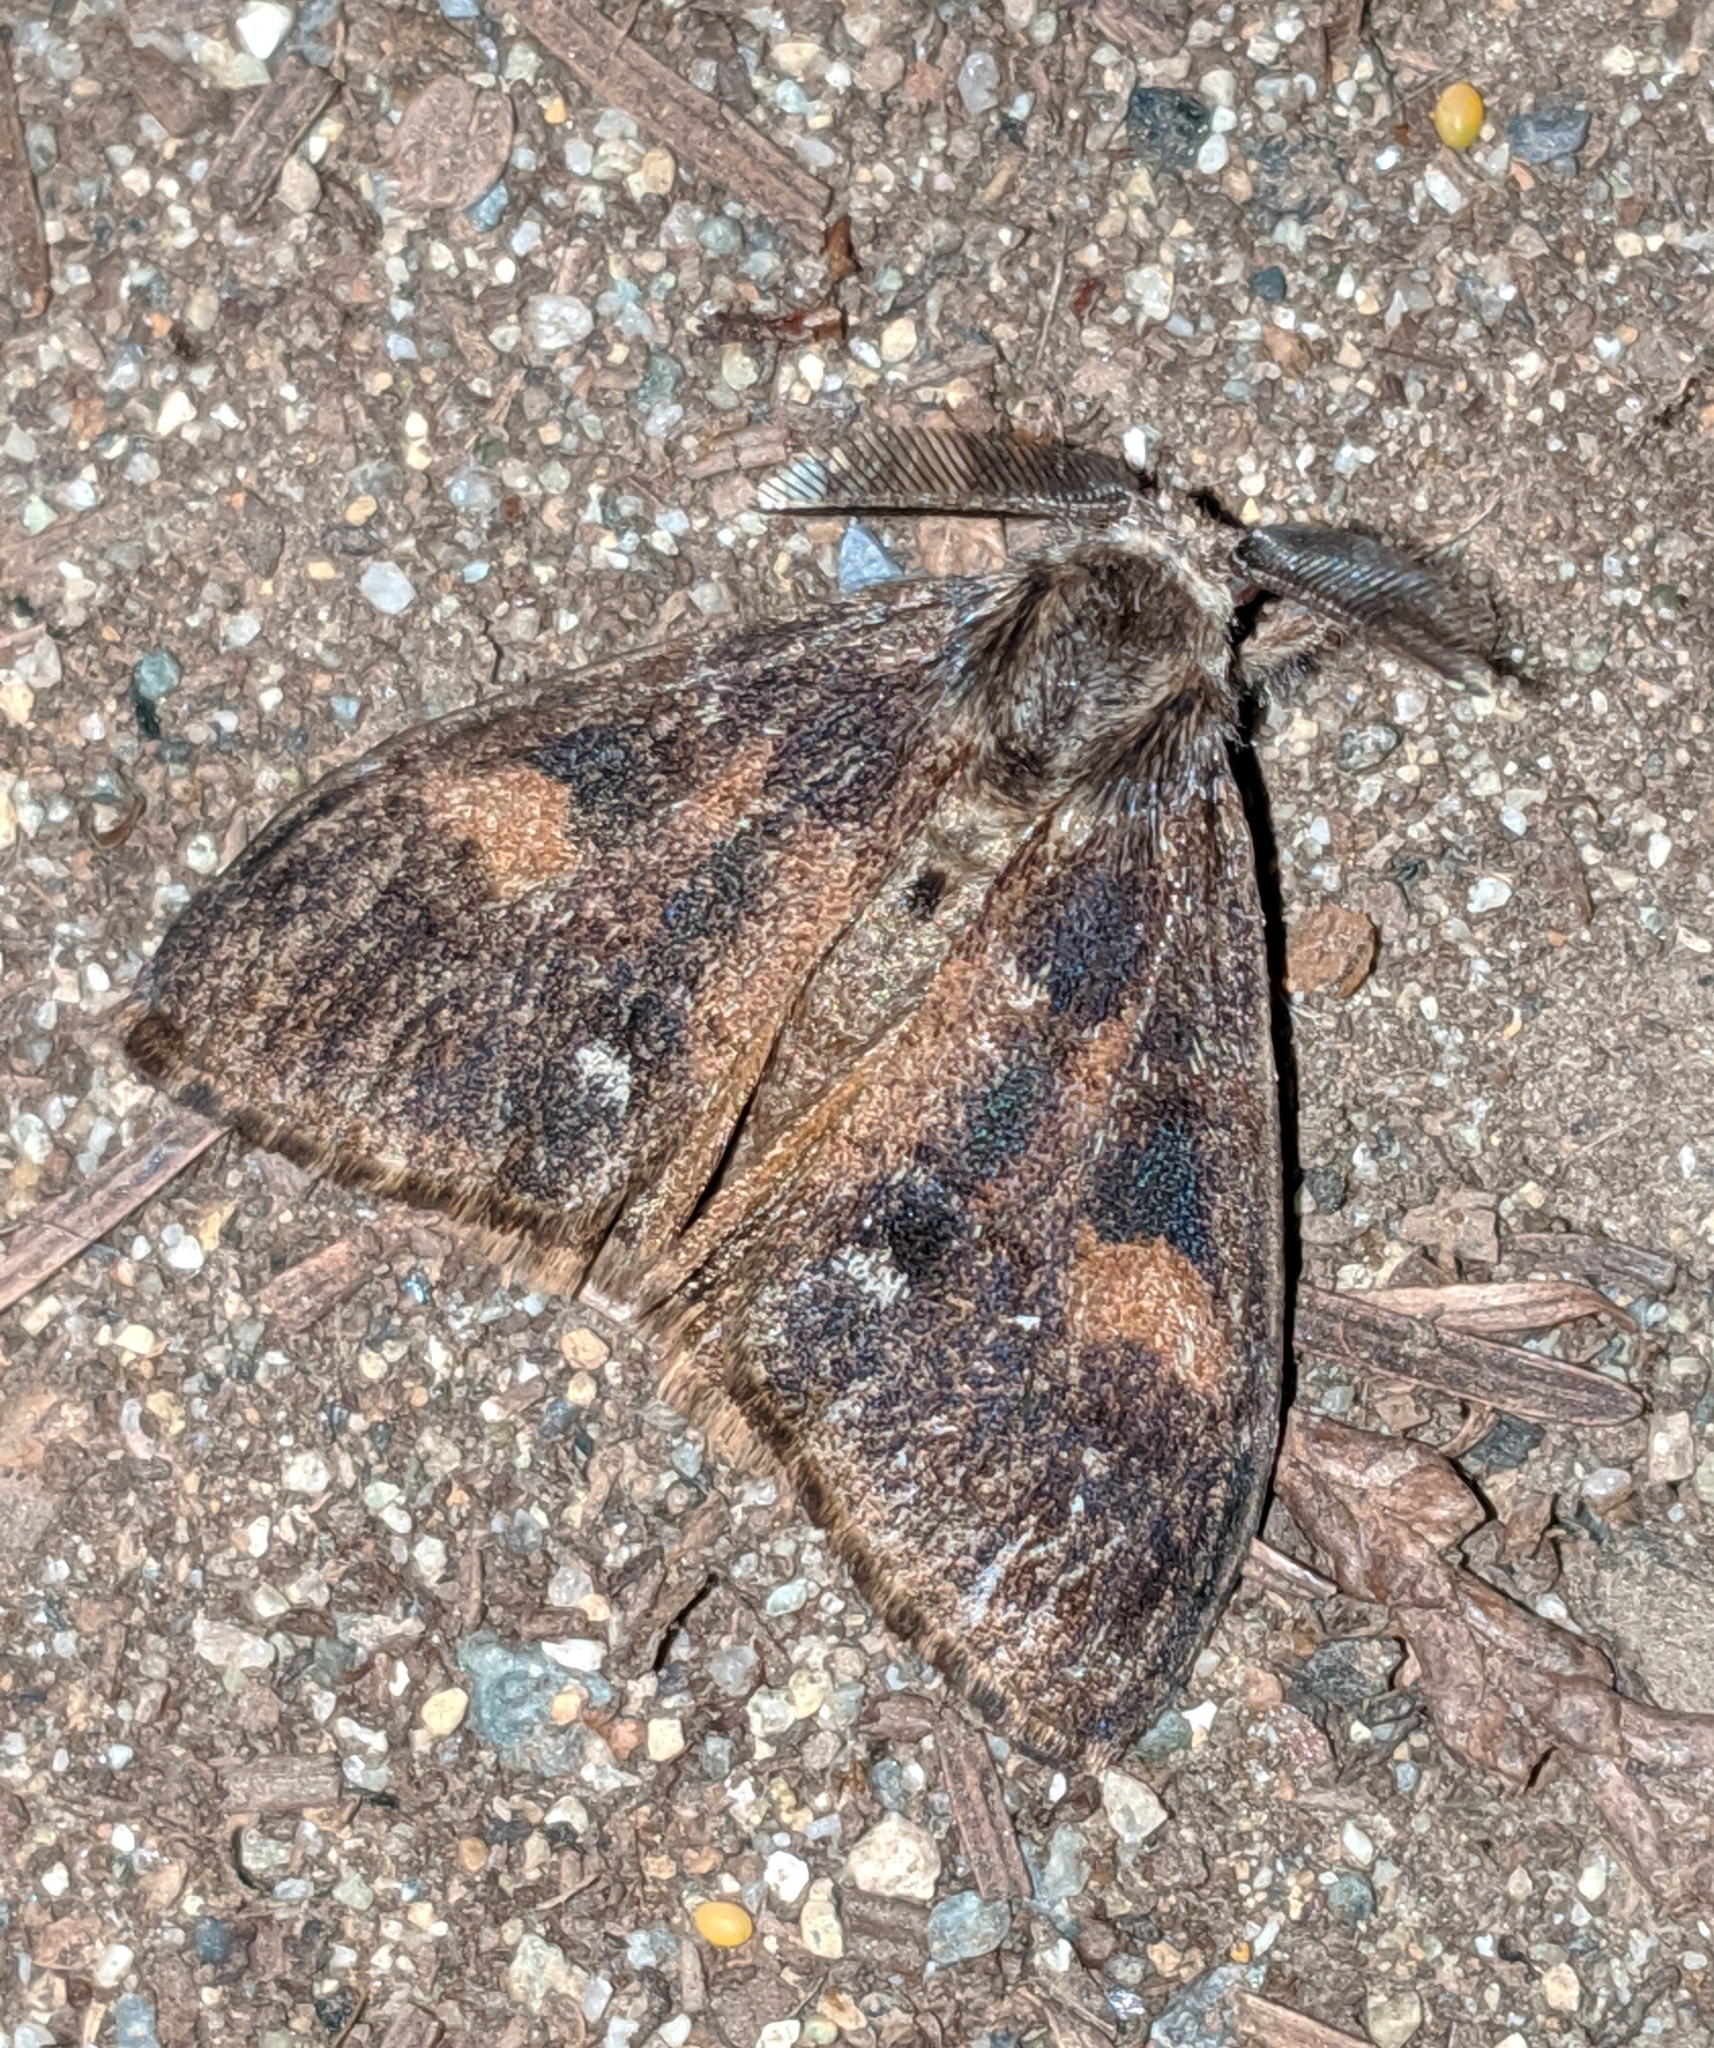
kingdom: Animalia
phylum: Arthropoda
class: Insecta
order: Lepidoptera
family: Erebidae
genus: Orgyia
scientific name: Orgyia pseudotsugata
